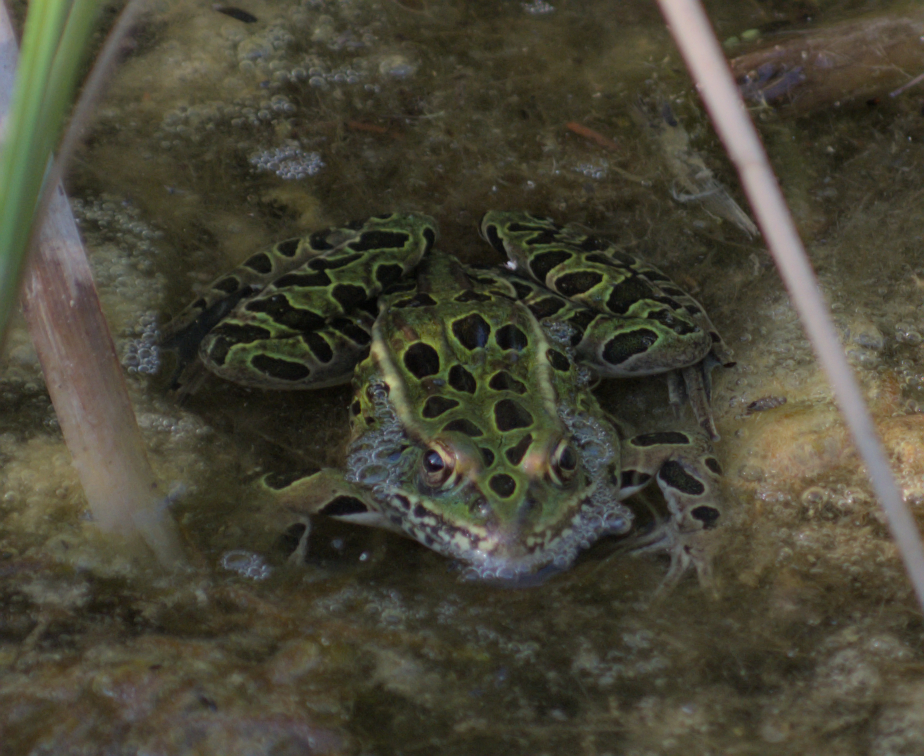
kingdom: Animalia
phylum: Chordata
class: Amphibia
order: Anura
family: Ranidae
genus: Lithobates
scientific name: Lithobates pipiens
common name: Northern leopard frog
